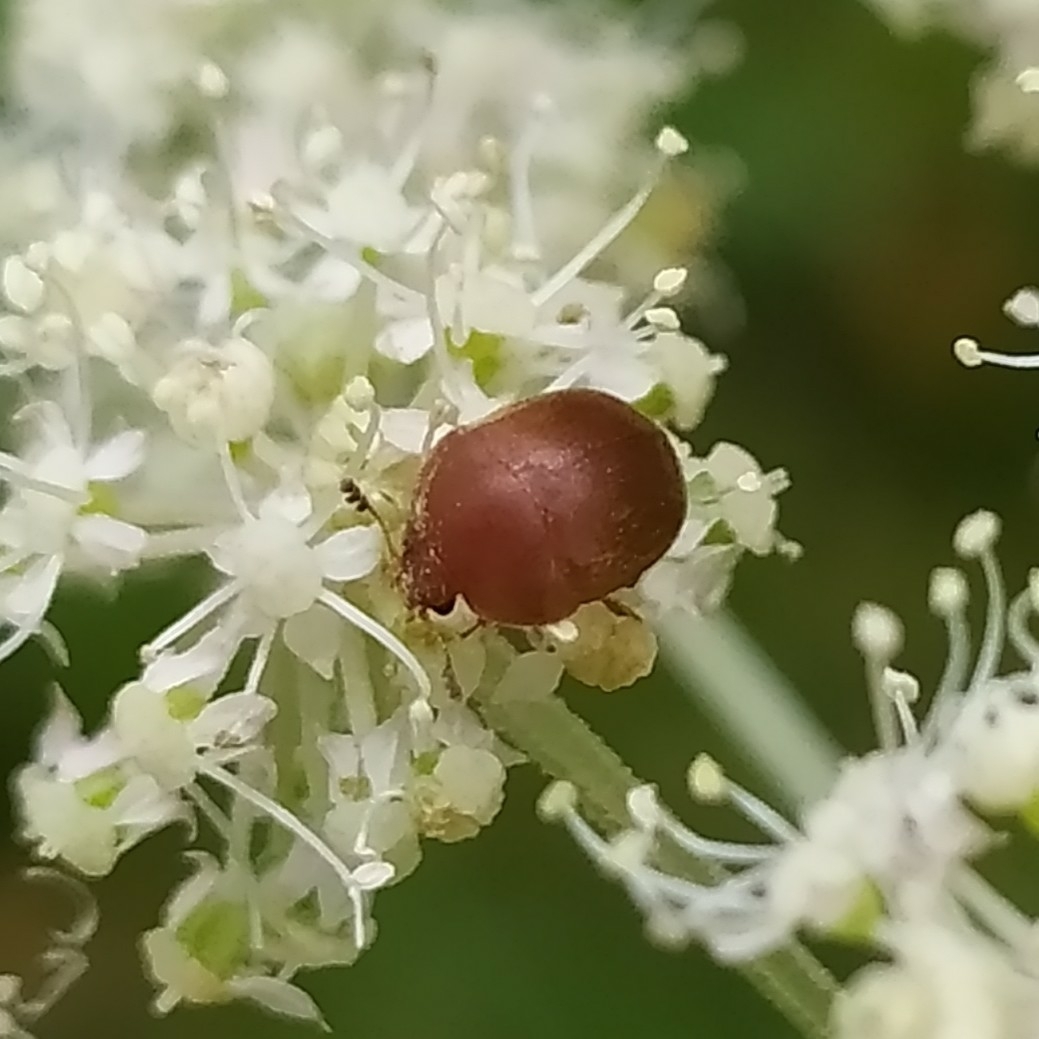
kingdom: Animalia
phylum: Arthropoda
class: Insecta
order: Coleoptera
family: Nitidulidae
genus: Cychramus
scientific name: Cychramus luteus
